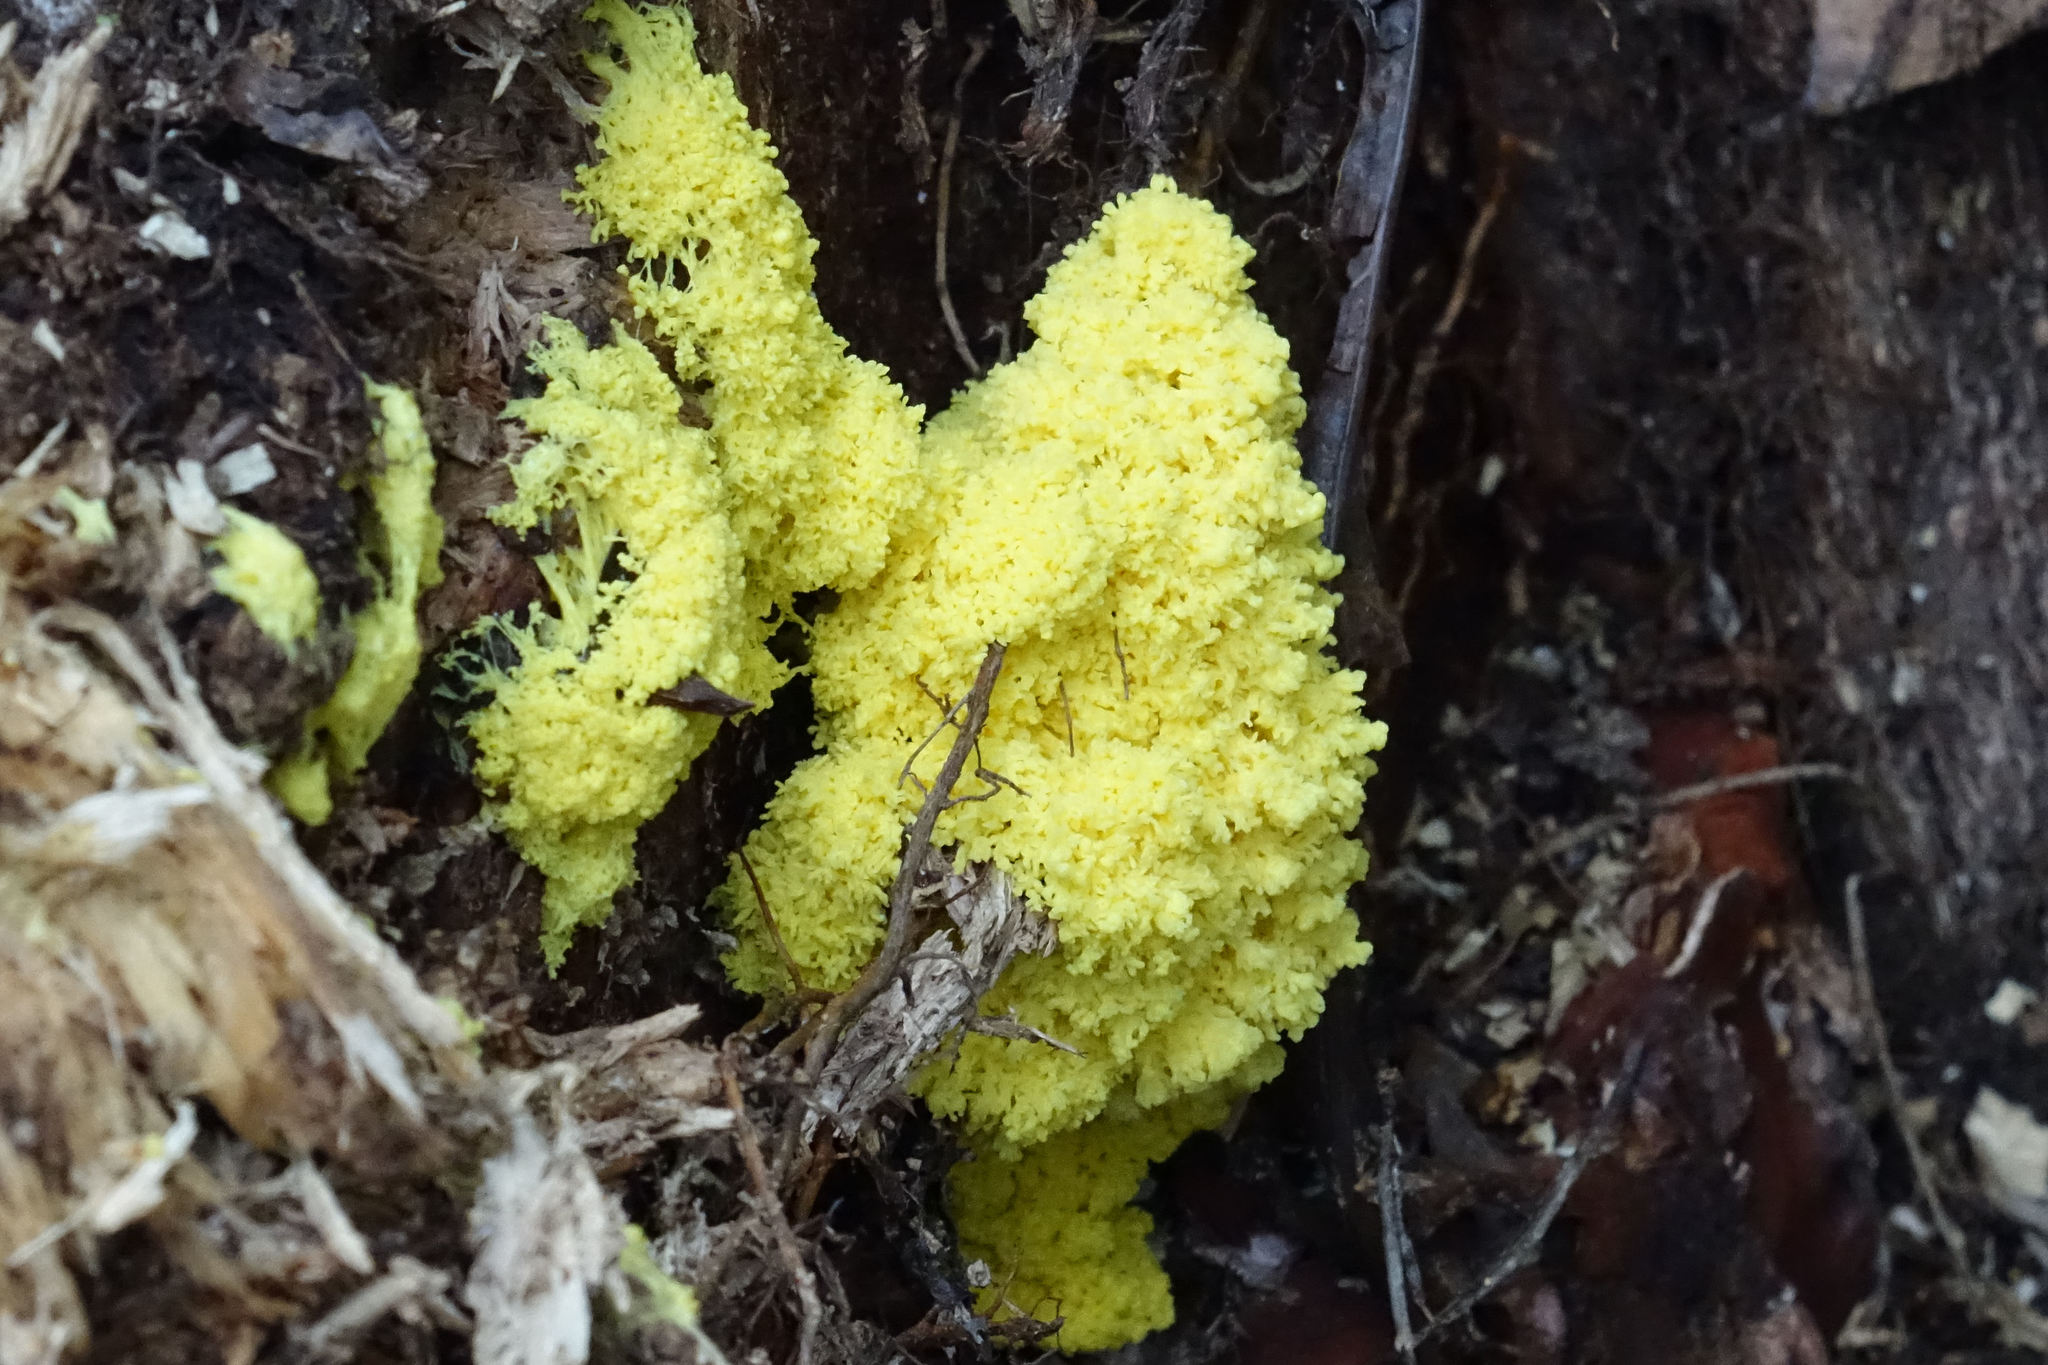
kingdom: Protozoa
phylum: Mycetozoa
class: Myxomycetes
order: Physarales
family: Physaraceae
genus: Fuligo
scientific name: Fuligo septica
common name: Dog vomit slime mold
